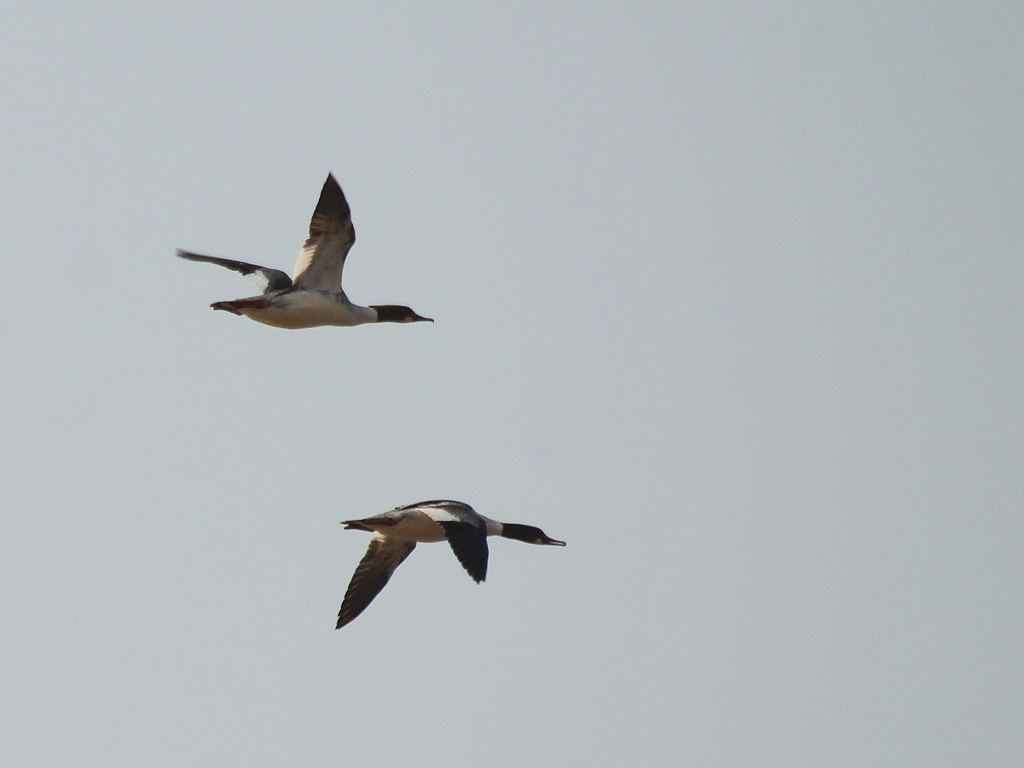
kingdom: Animalia
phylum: Chordata
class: Aves
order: Anseriformes
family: Anatidae
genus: Mergus
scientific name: Mergus merganser
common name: Common merganser
